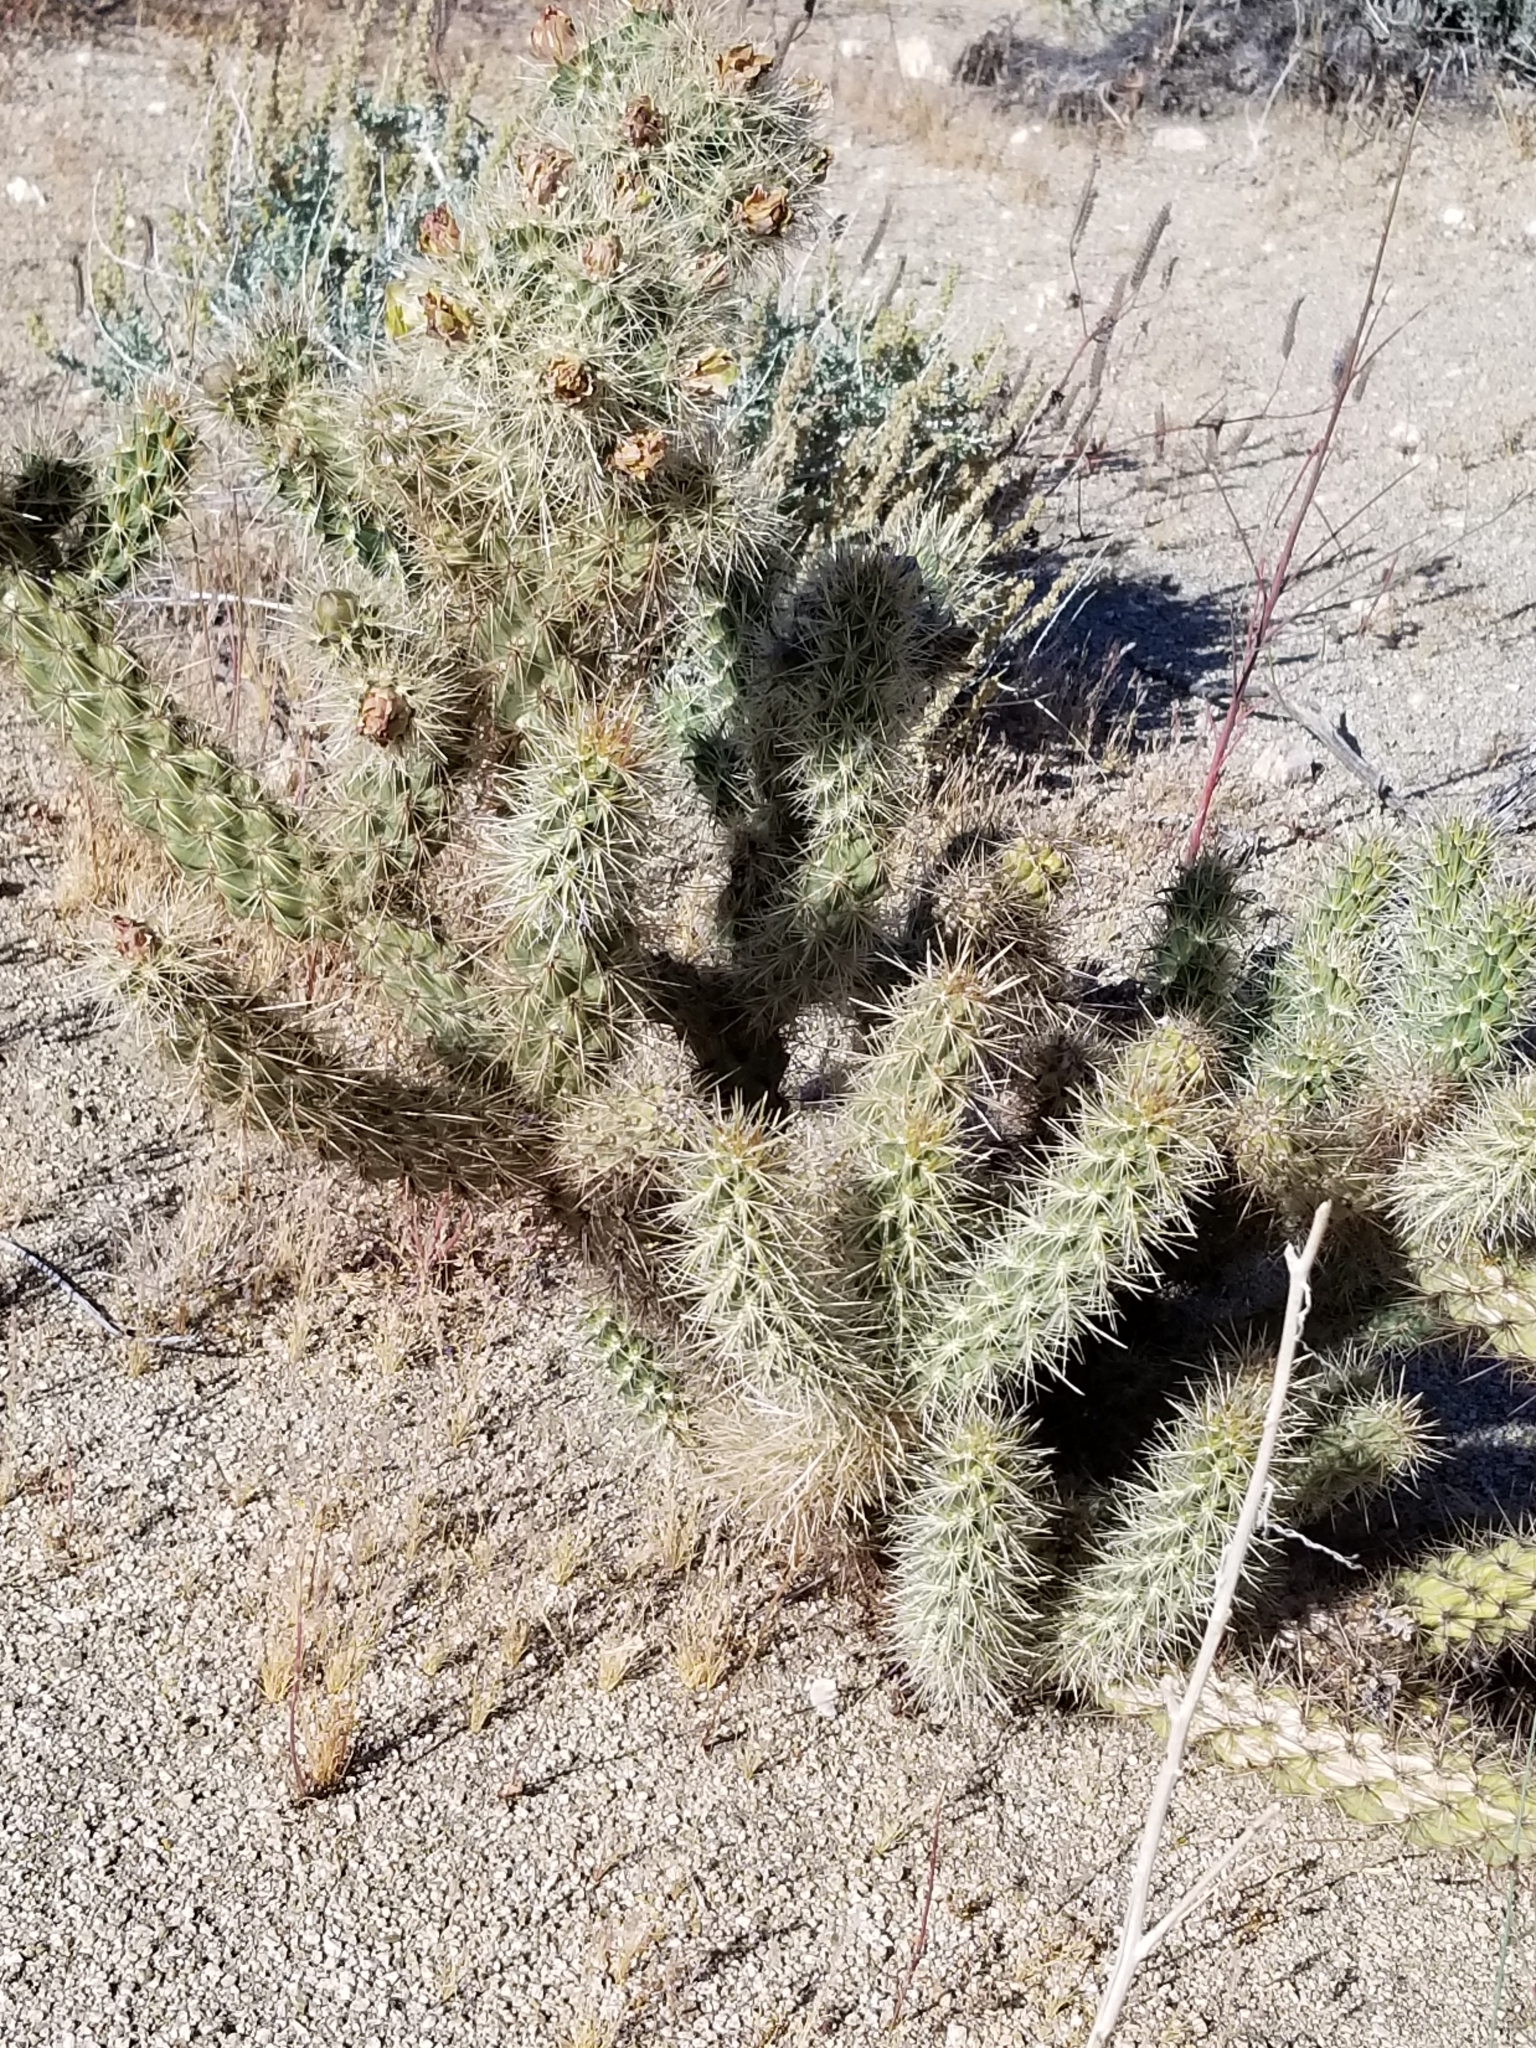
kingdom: Plantae
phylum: Tracheophyta
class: Magnoliopsida
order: Caryophyllales
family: Cactaceae
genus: Cylindropuntia
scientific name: Cylindropuntia echinocarpa
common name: Ground cholla
